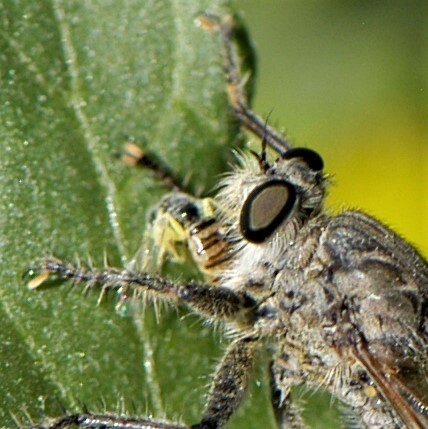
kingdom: Animalia
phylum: Arthropoda
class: Insecta
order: Hymenoptera
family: Andrenidae
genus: Perdita
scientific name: Perdita
